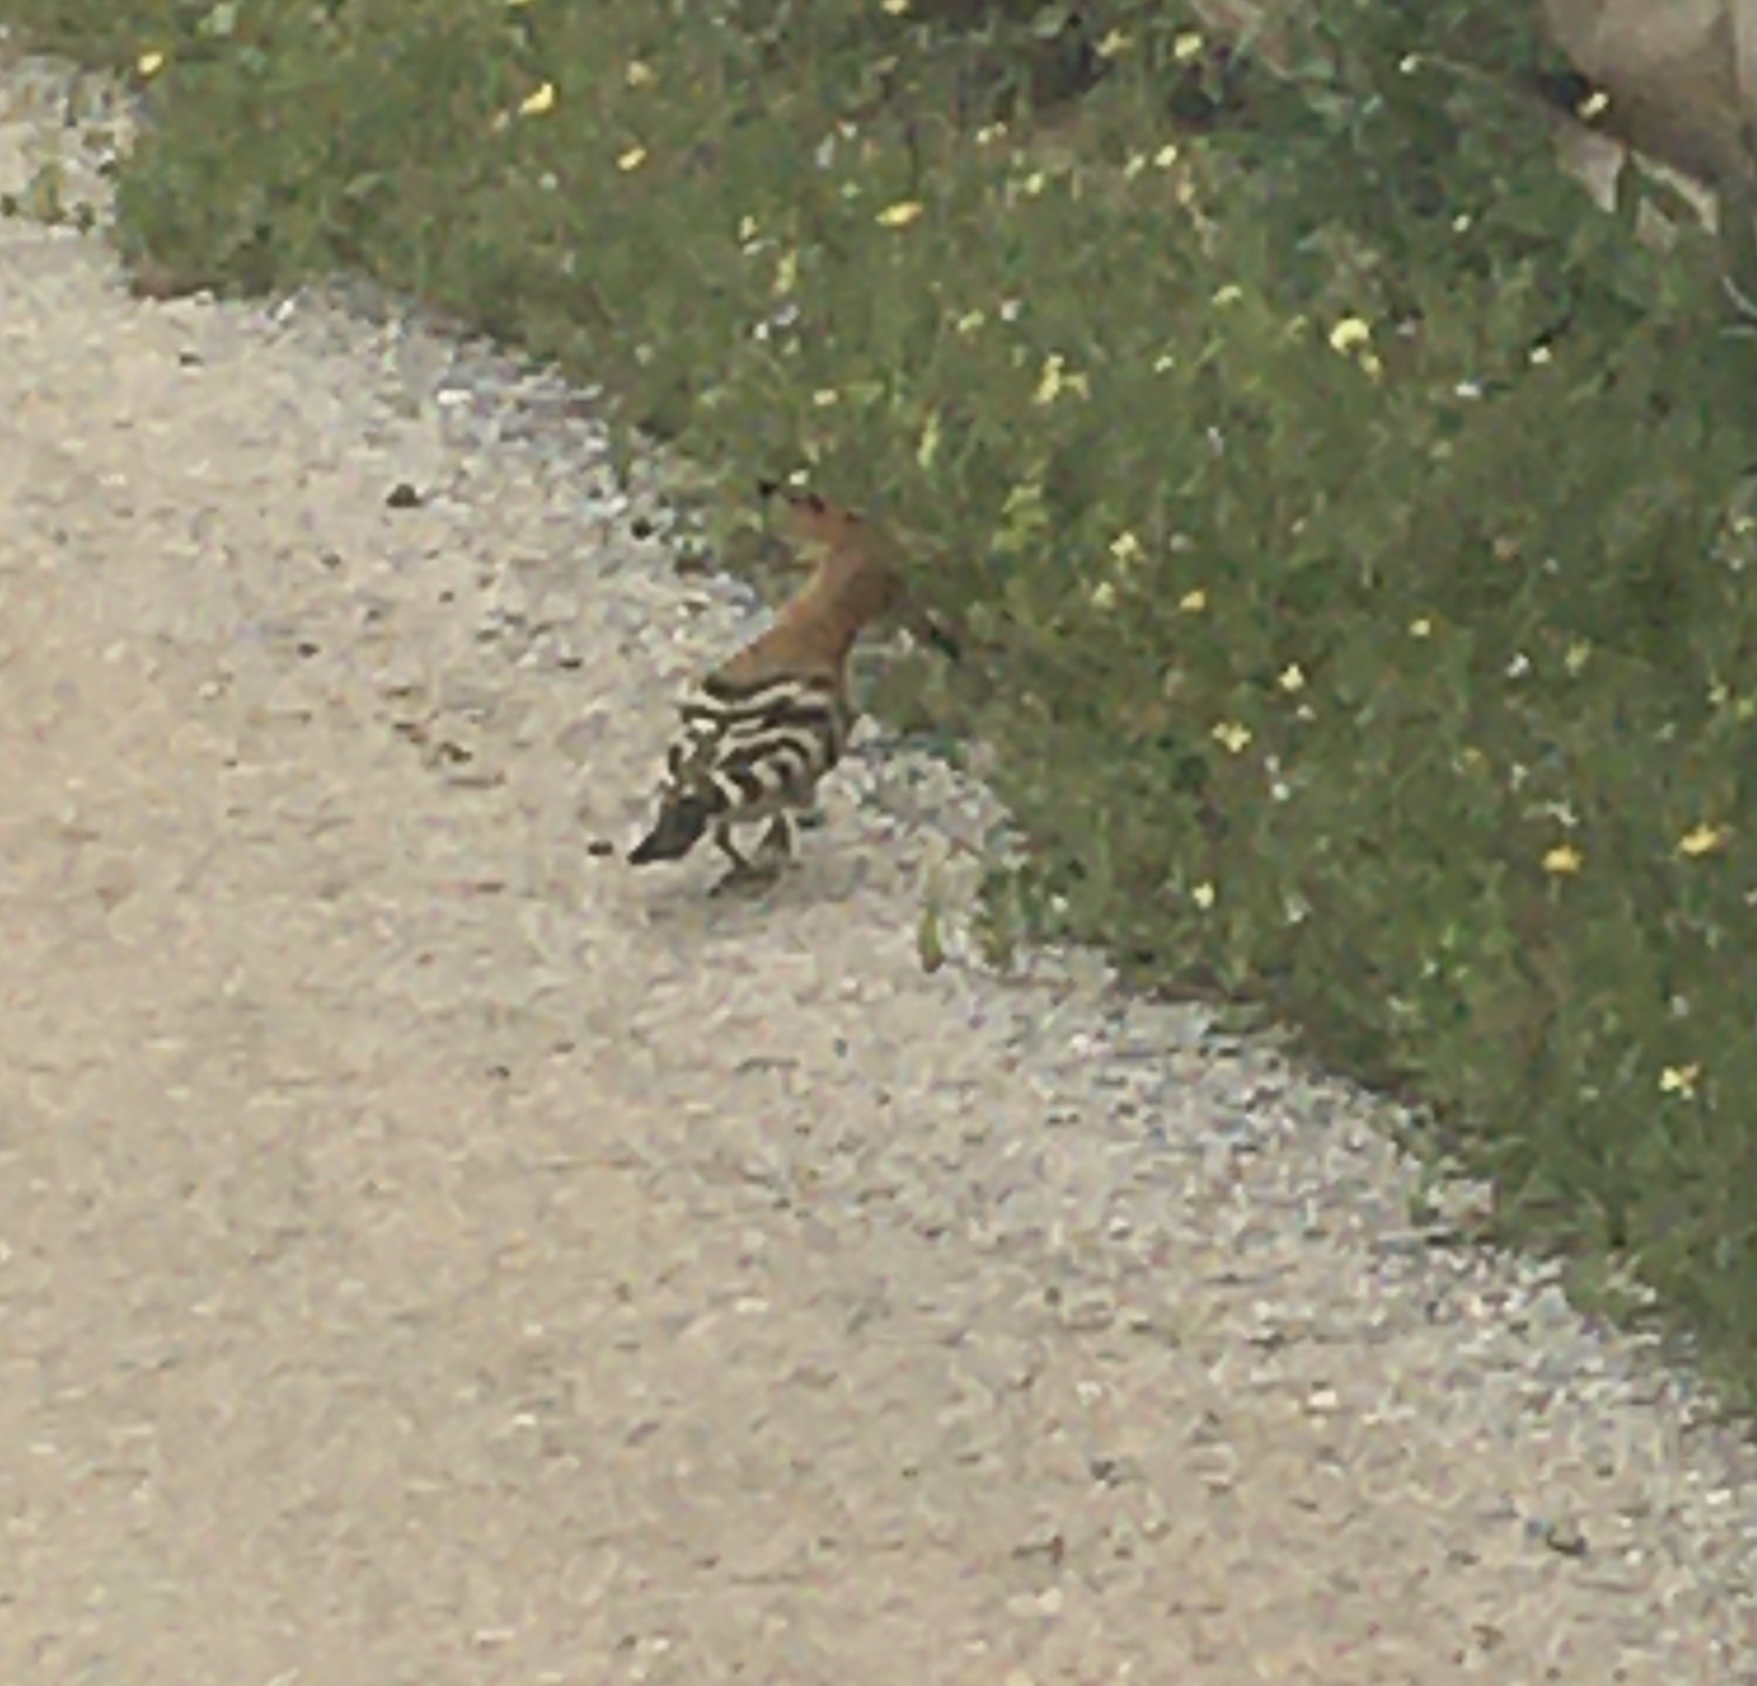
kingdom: Animalia
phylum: Chordata
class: Aves
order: Bucerotiformes
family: Upupidae
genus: Upupa
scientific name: Upupa epops
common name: Eurasian hoopoe
